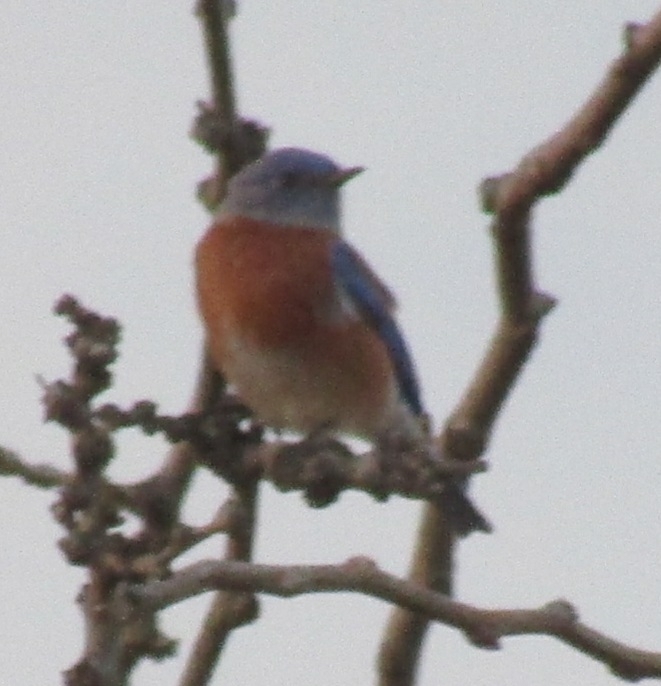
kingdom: Animalia
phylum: Chordata
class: Aves
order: Passeriformes
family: Turdidae
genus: Sialia
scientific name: Sialia mexicana
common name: Western bluebird
